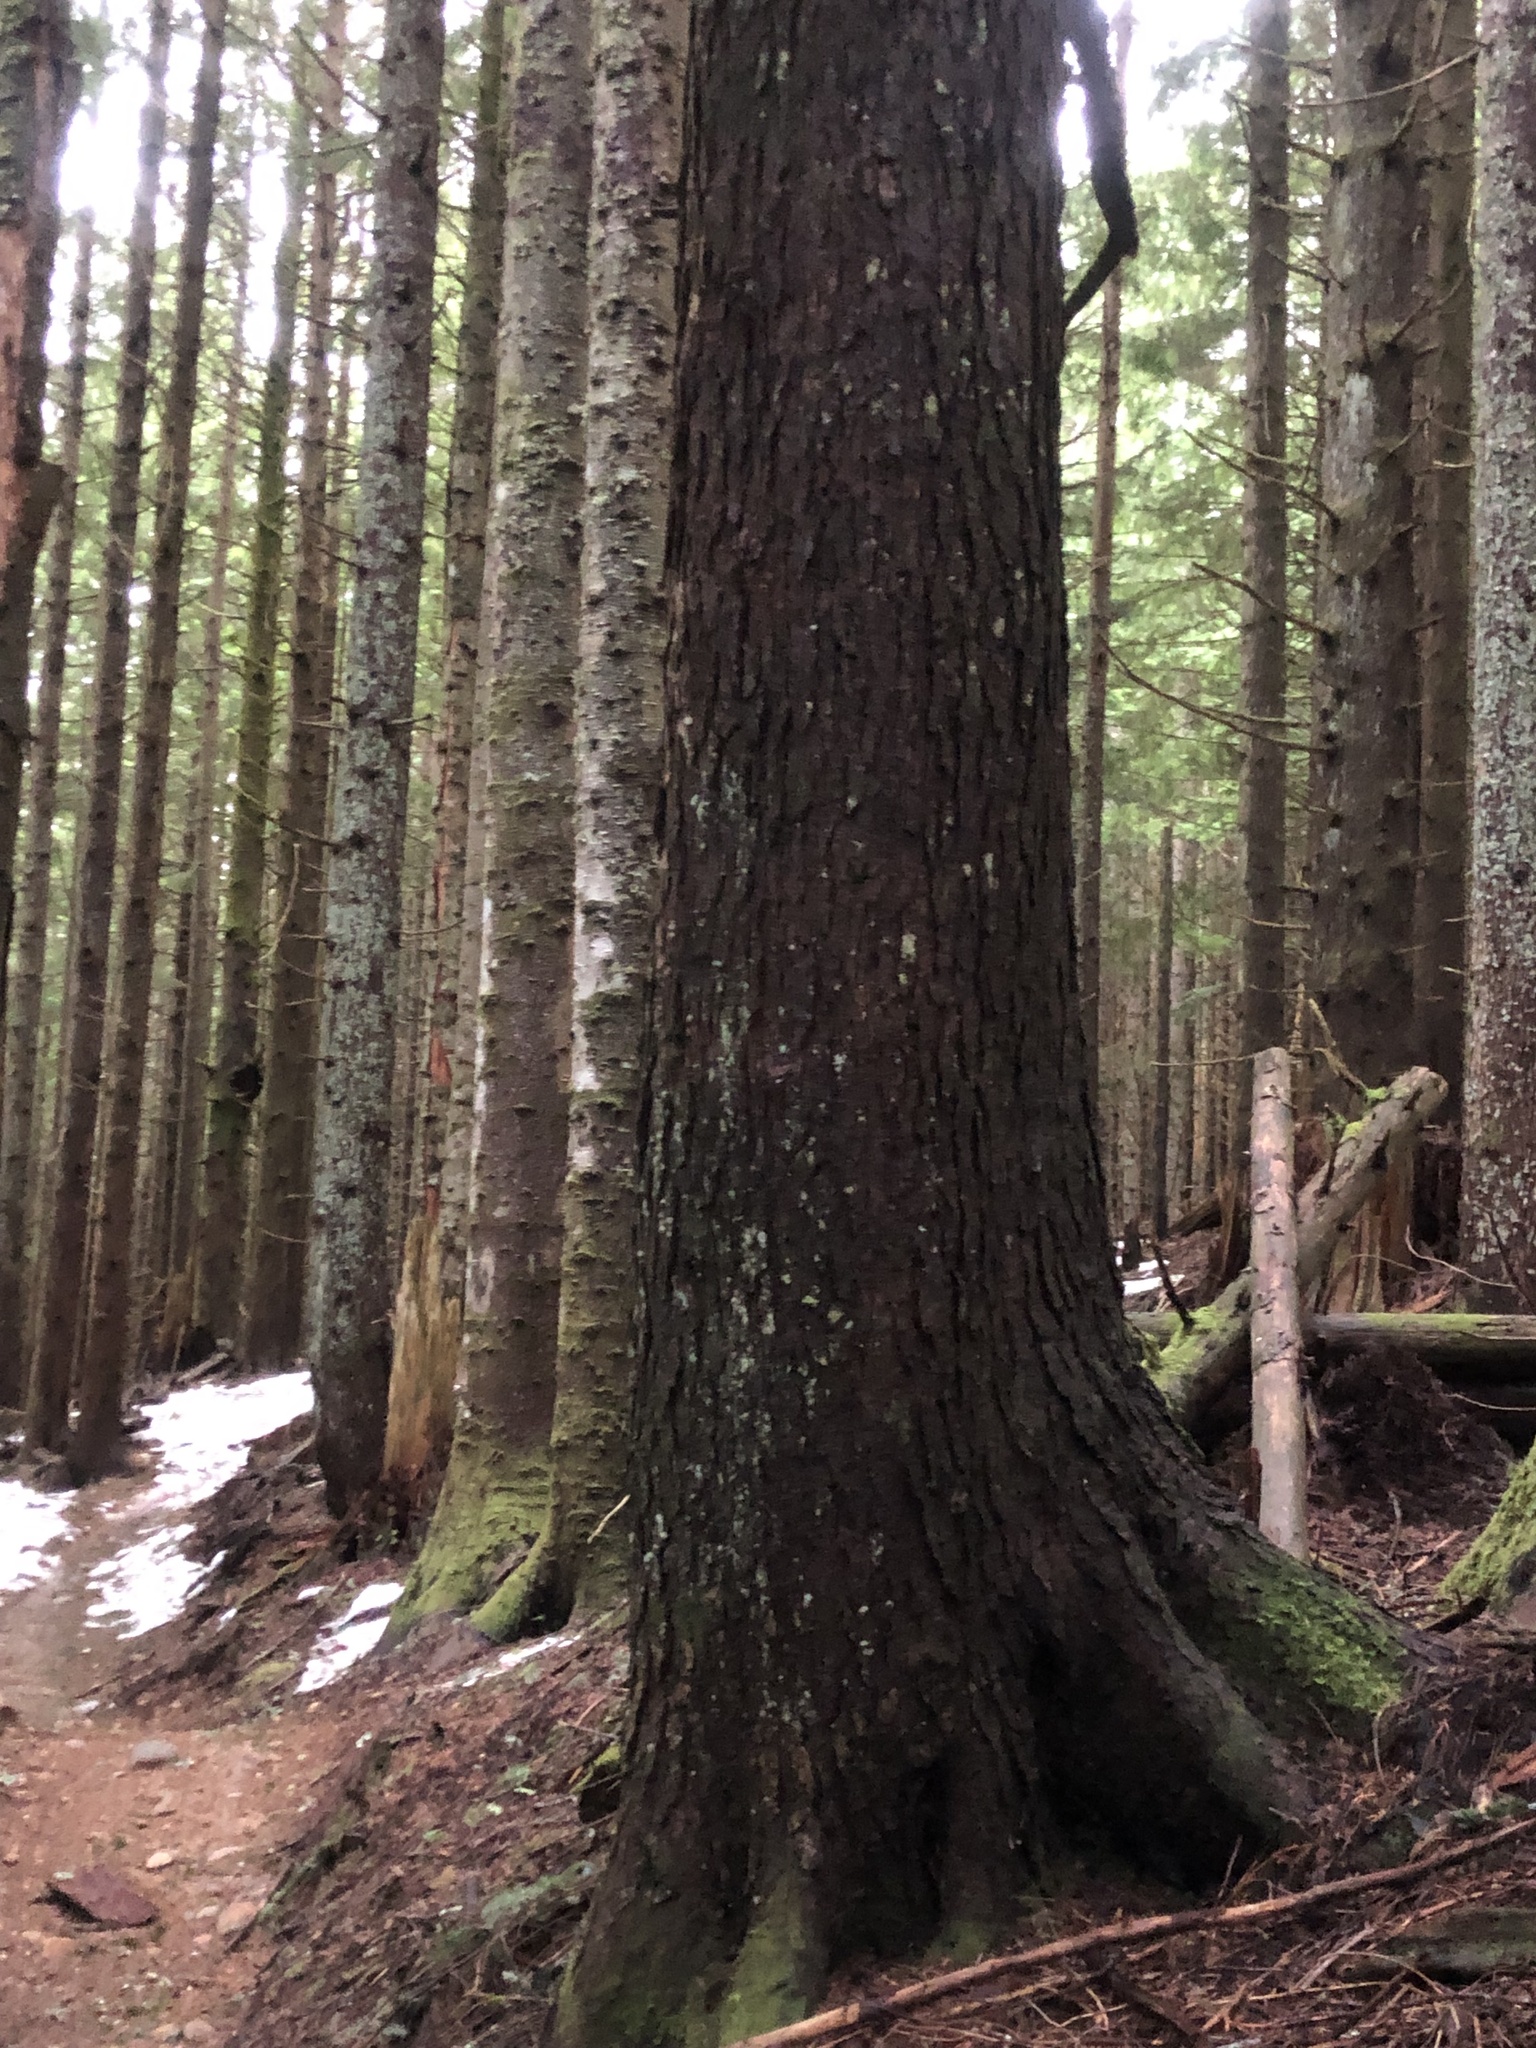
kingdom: Plantae
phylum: Tracheophyta
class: Pinopsida
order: Pinales
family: Pinaceae
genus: Tsuga
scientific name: Tsuga heterophylla
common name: Western hemlock
